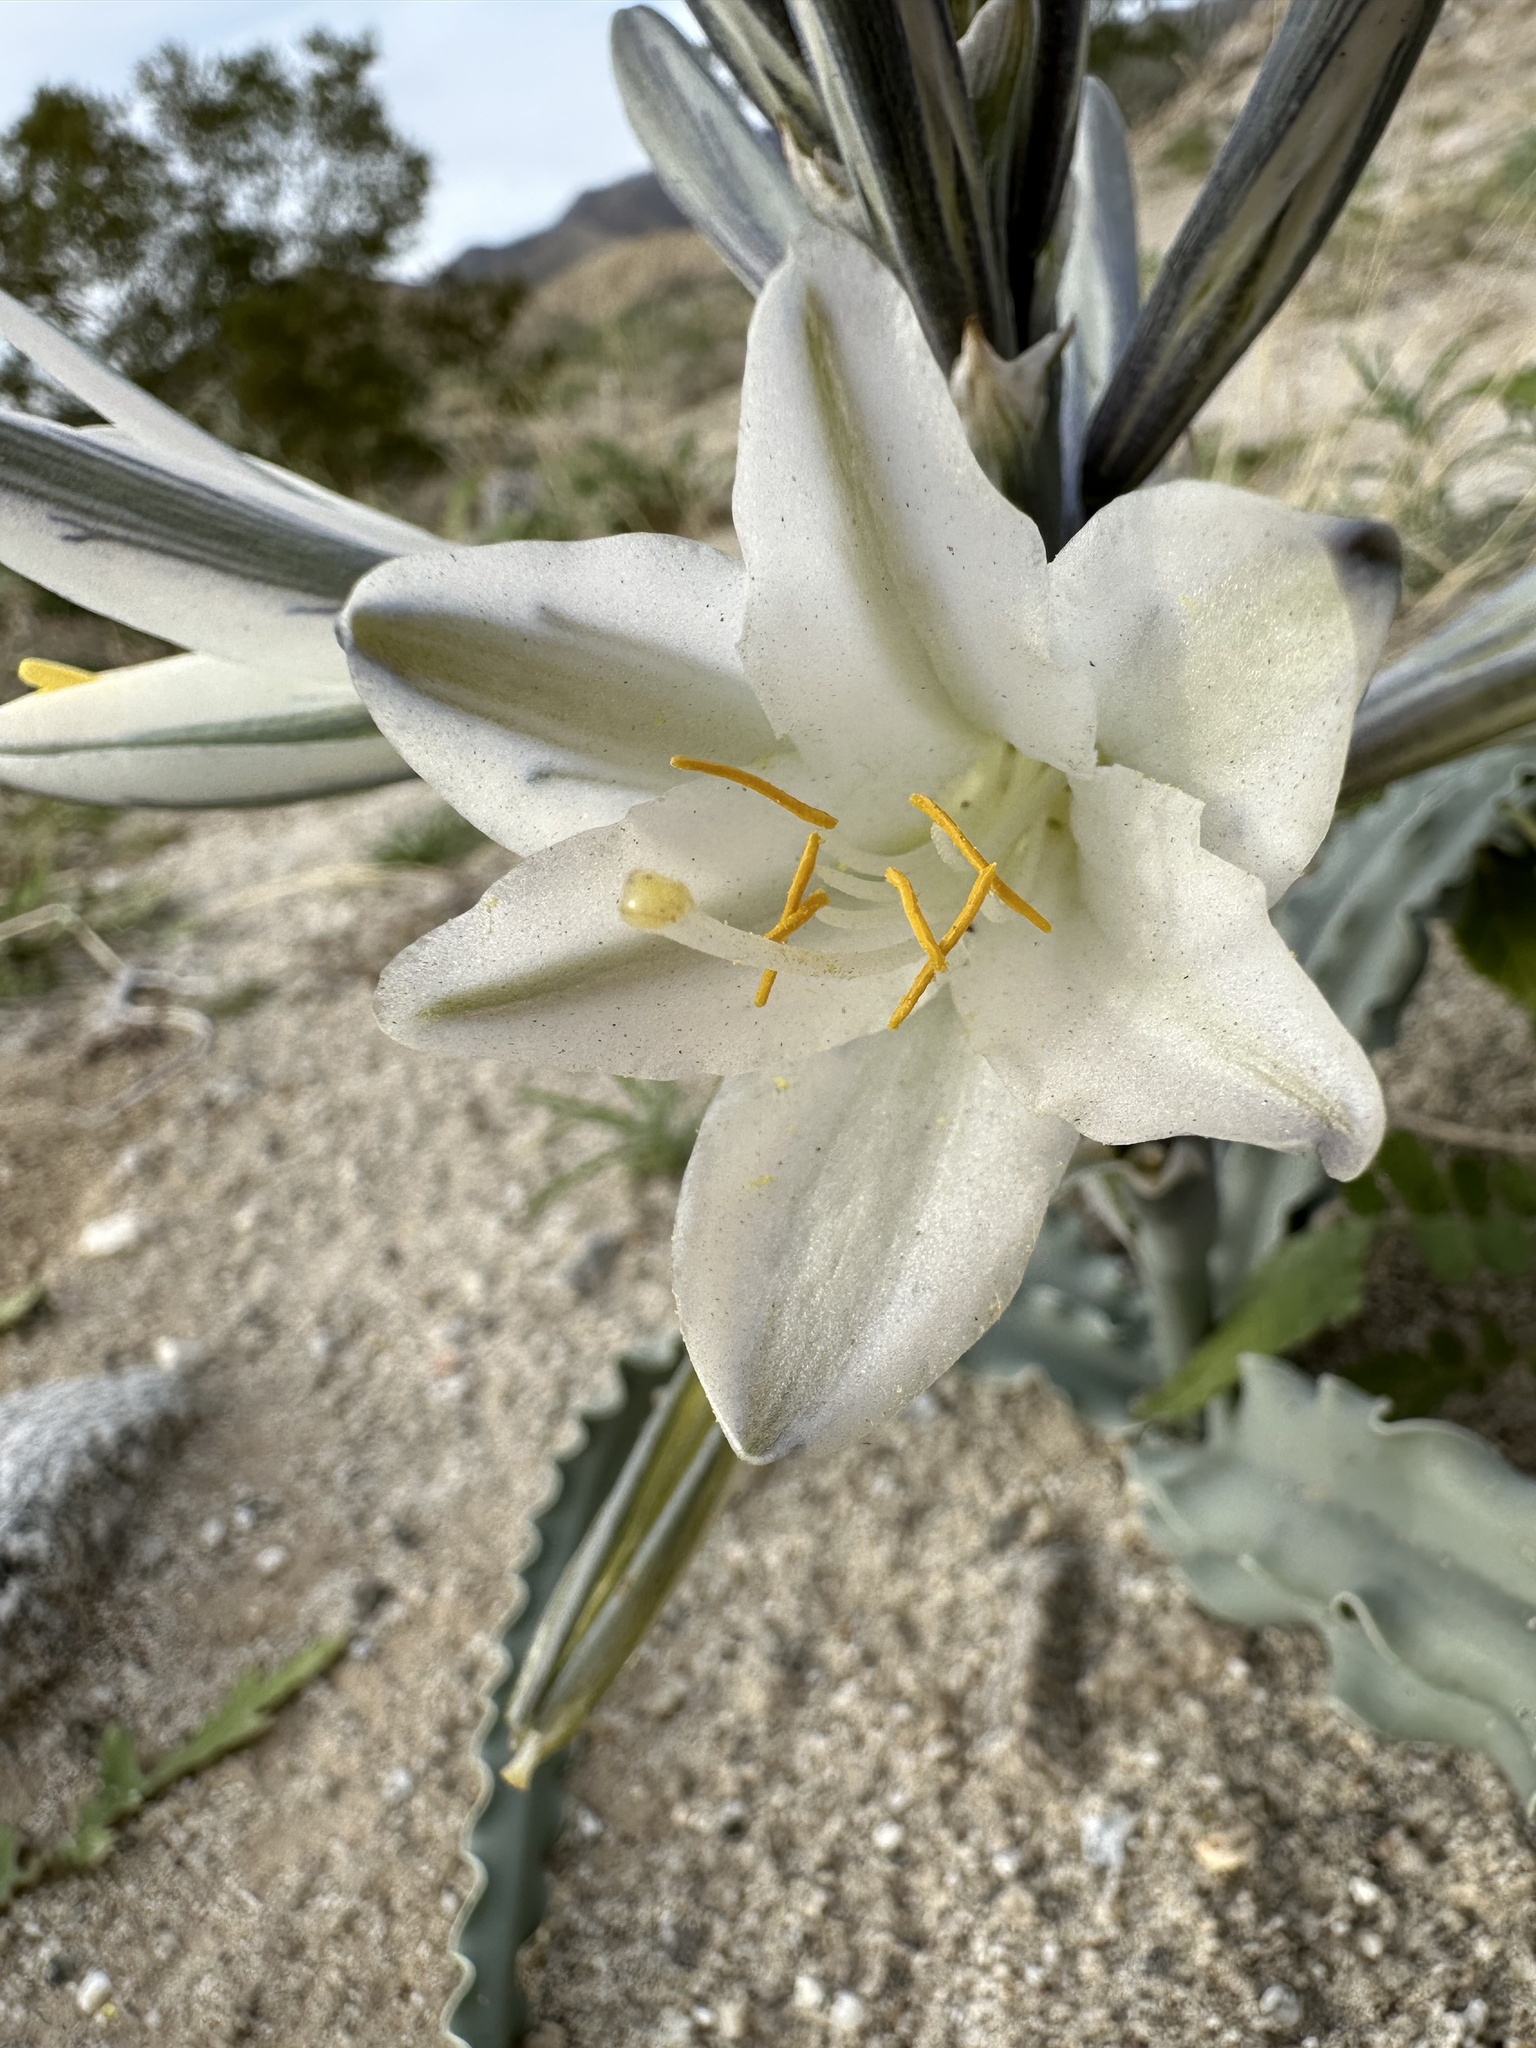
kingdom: Plantae
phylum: Tracheophyta
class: Liliopsida
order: Asparagales
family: Asparagaceae
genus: Hesperocallis
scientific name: Hesperocallis undulata
